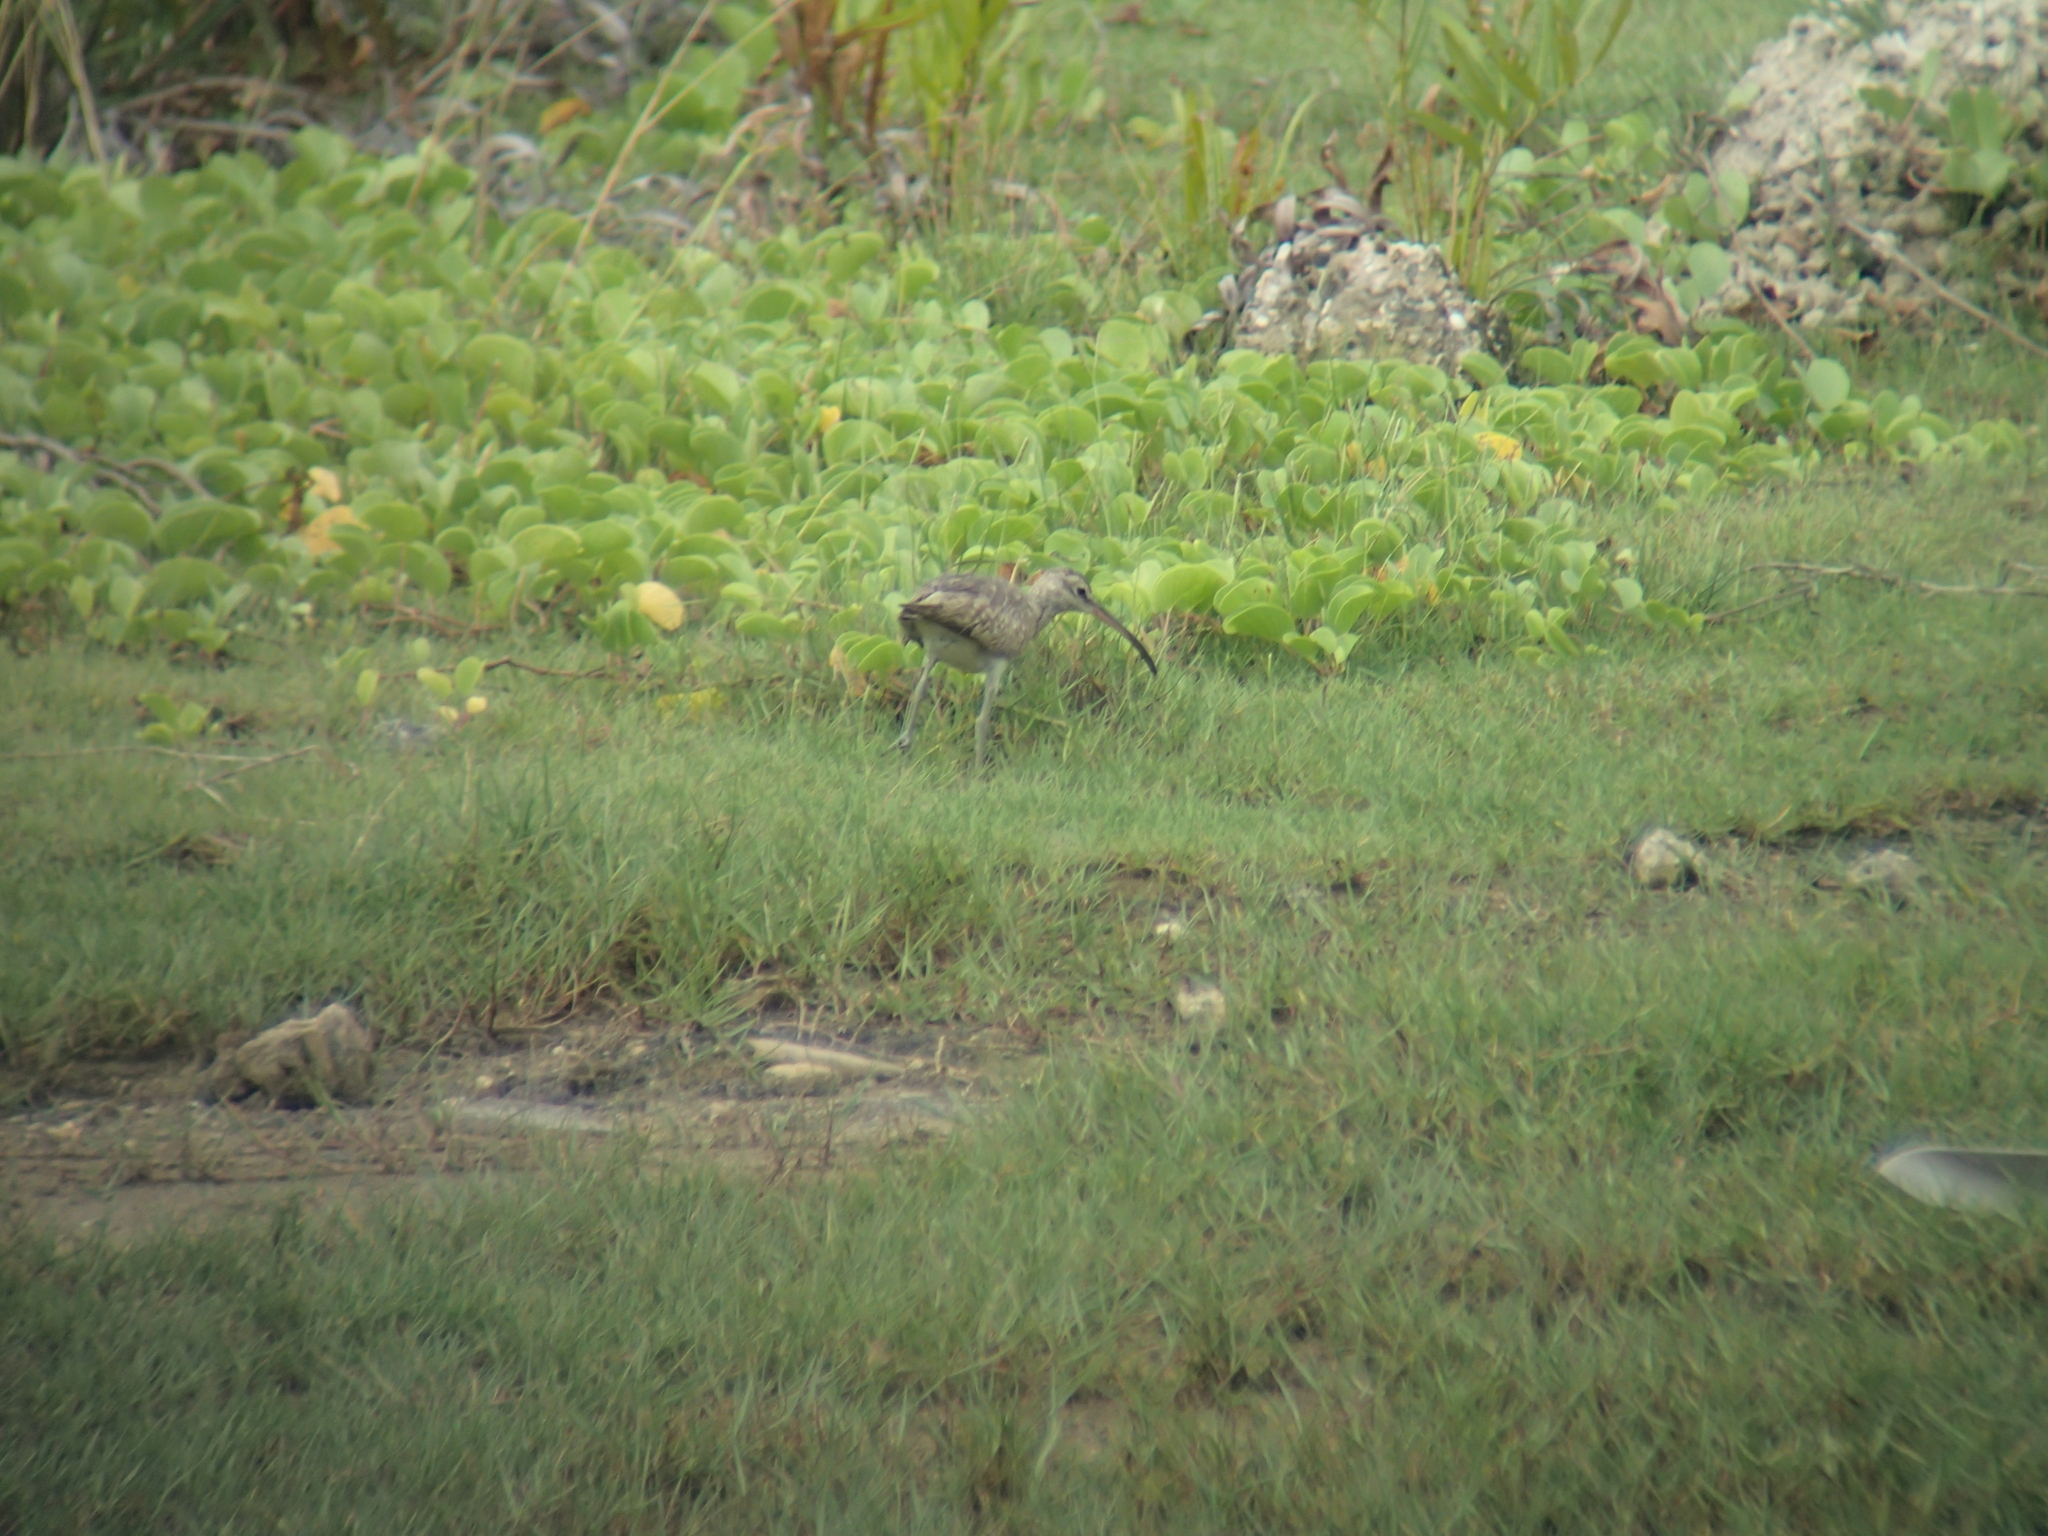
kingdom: Animalia
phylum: Chordata
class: Aves
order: Charadriiformes
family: Scolopacidae
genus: Numenius
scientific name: Numenius phaeopus
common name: Whimbrel
